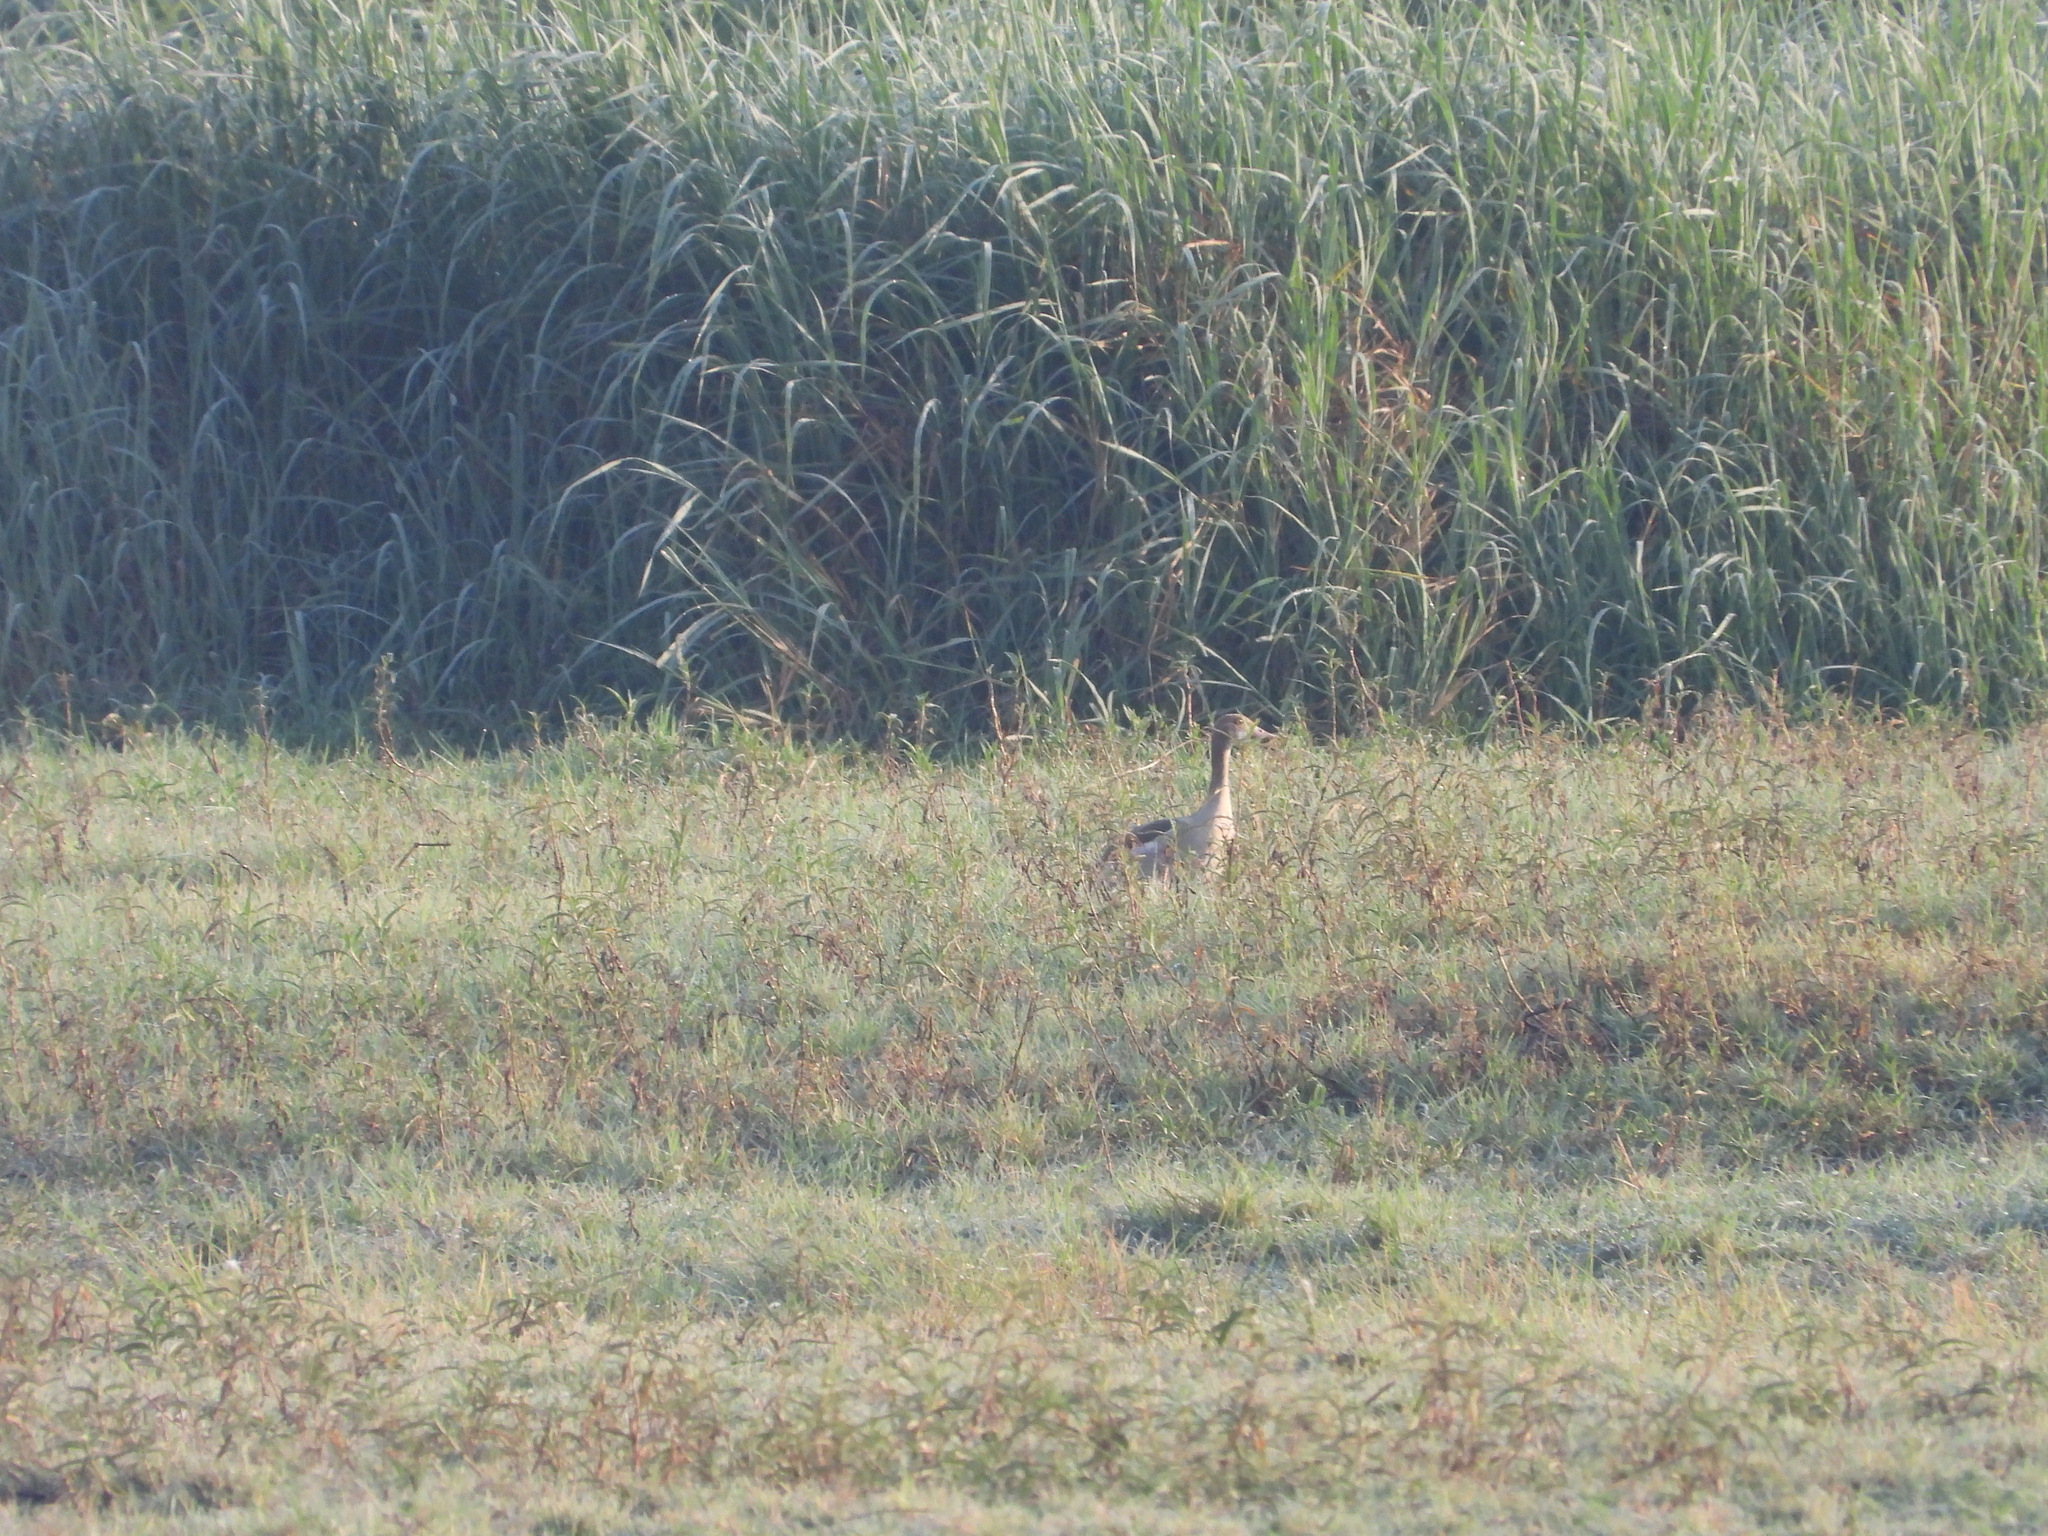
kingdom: Animalia
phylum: Chordata
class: Aves
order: Anseriformes
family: Anatidae
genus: Alopochen
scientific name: Alopochen aegyptiaca
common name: Egyptian goose
